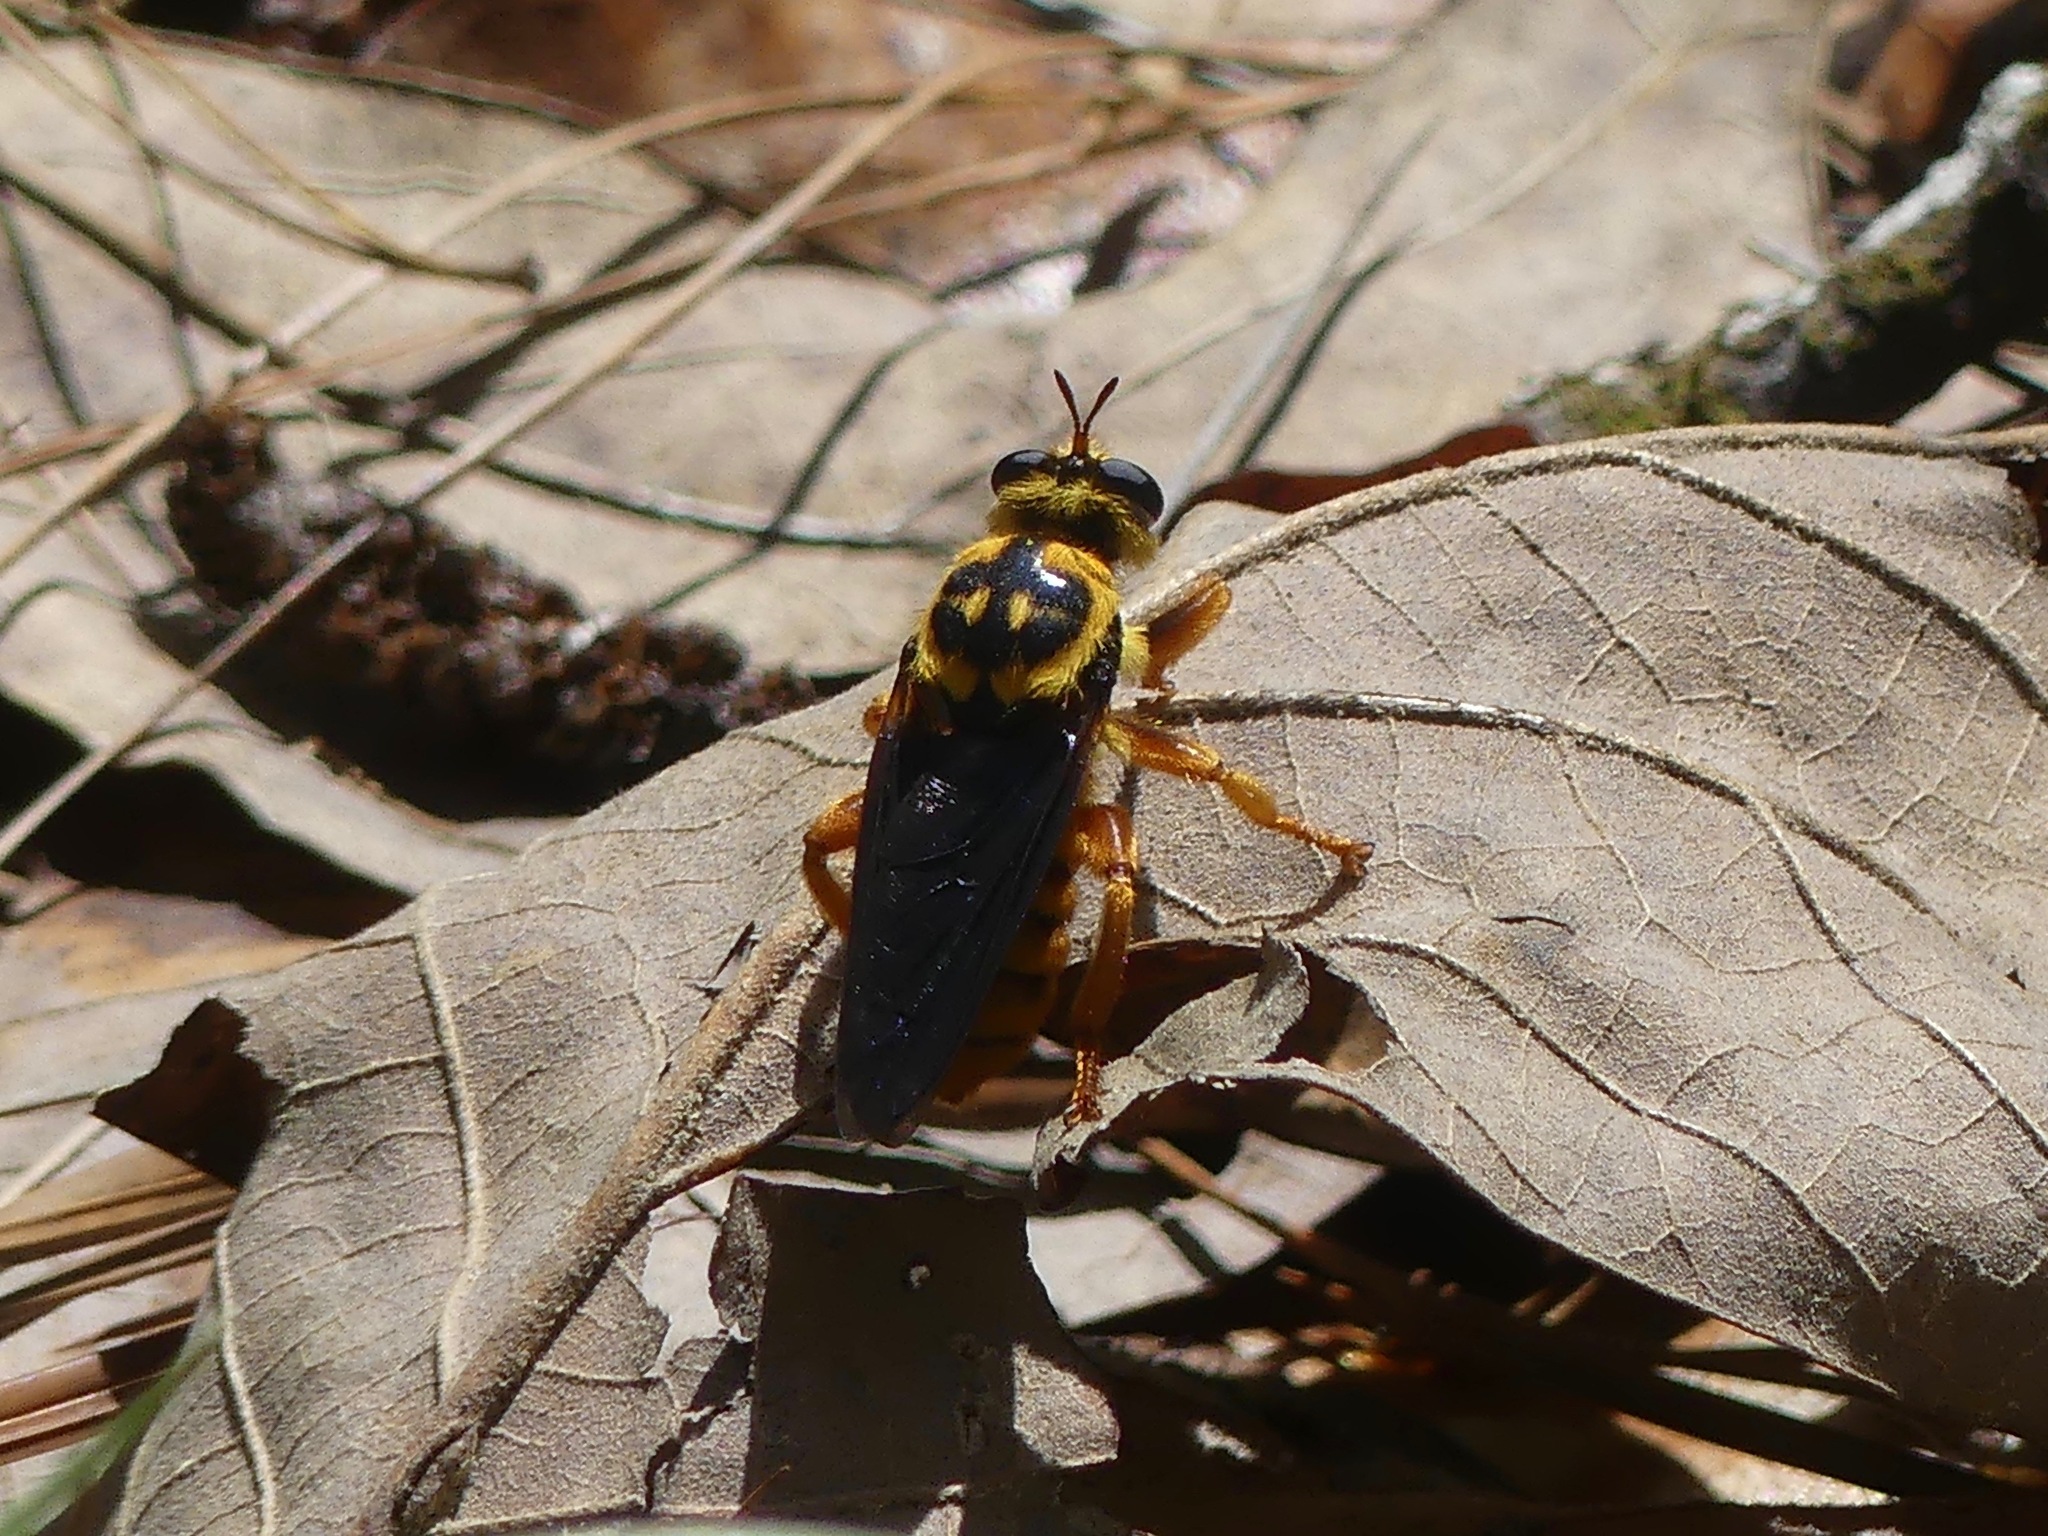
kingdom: Animalia
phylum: Arthropoda
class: Insecta
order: Diptera
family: Asilidae
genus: Laphria
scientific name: Laphria saffrana
